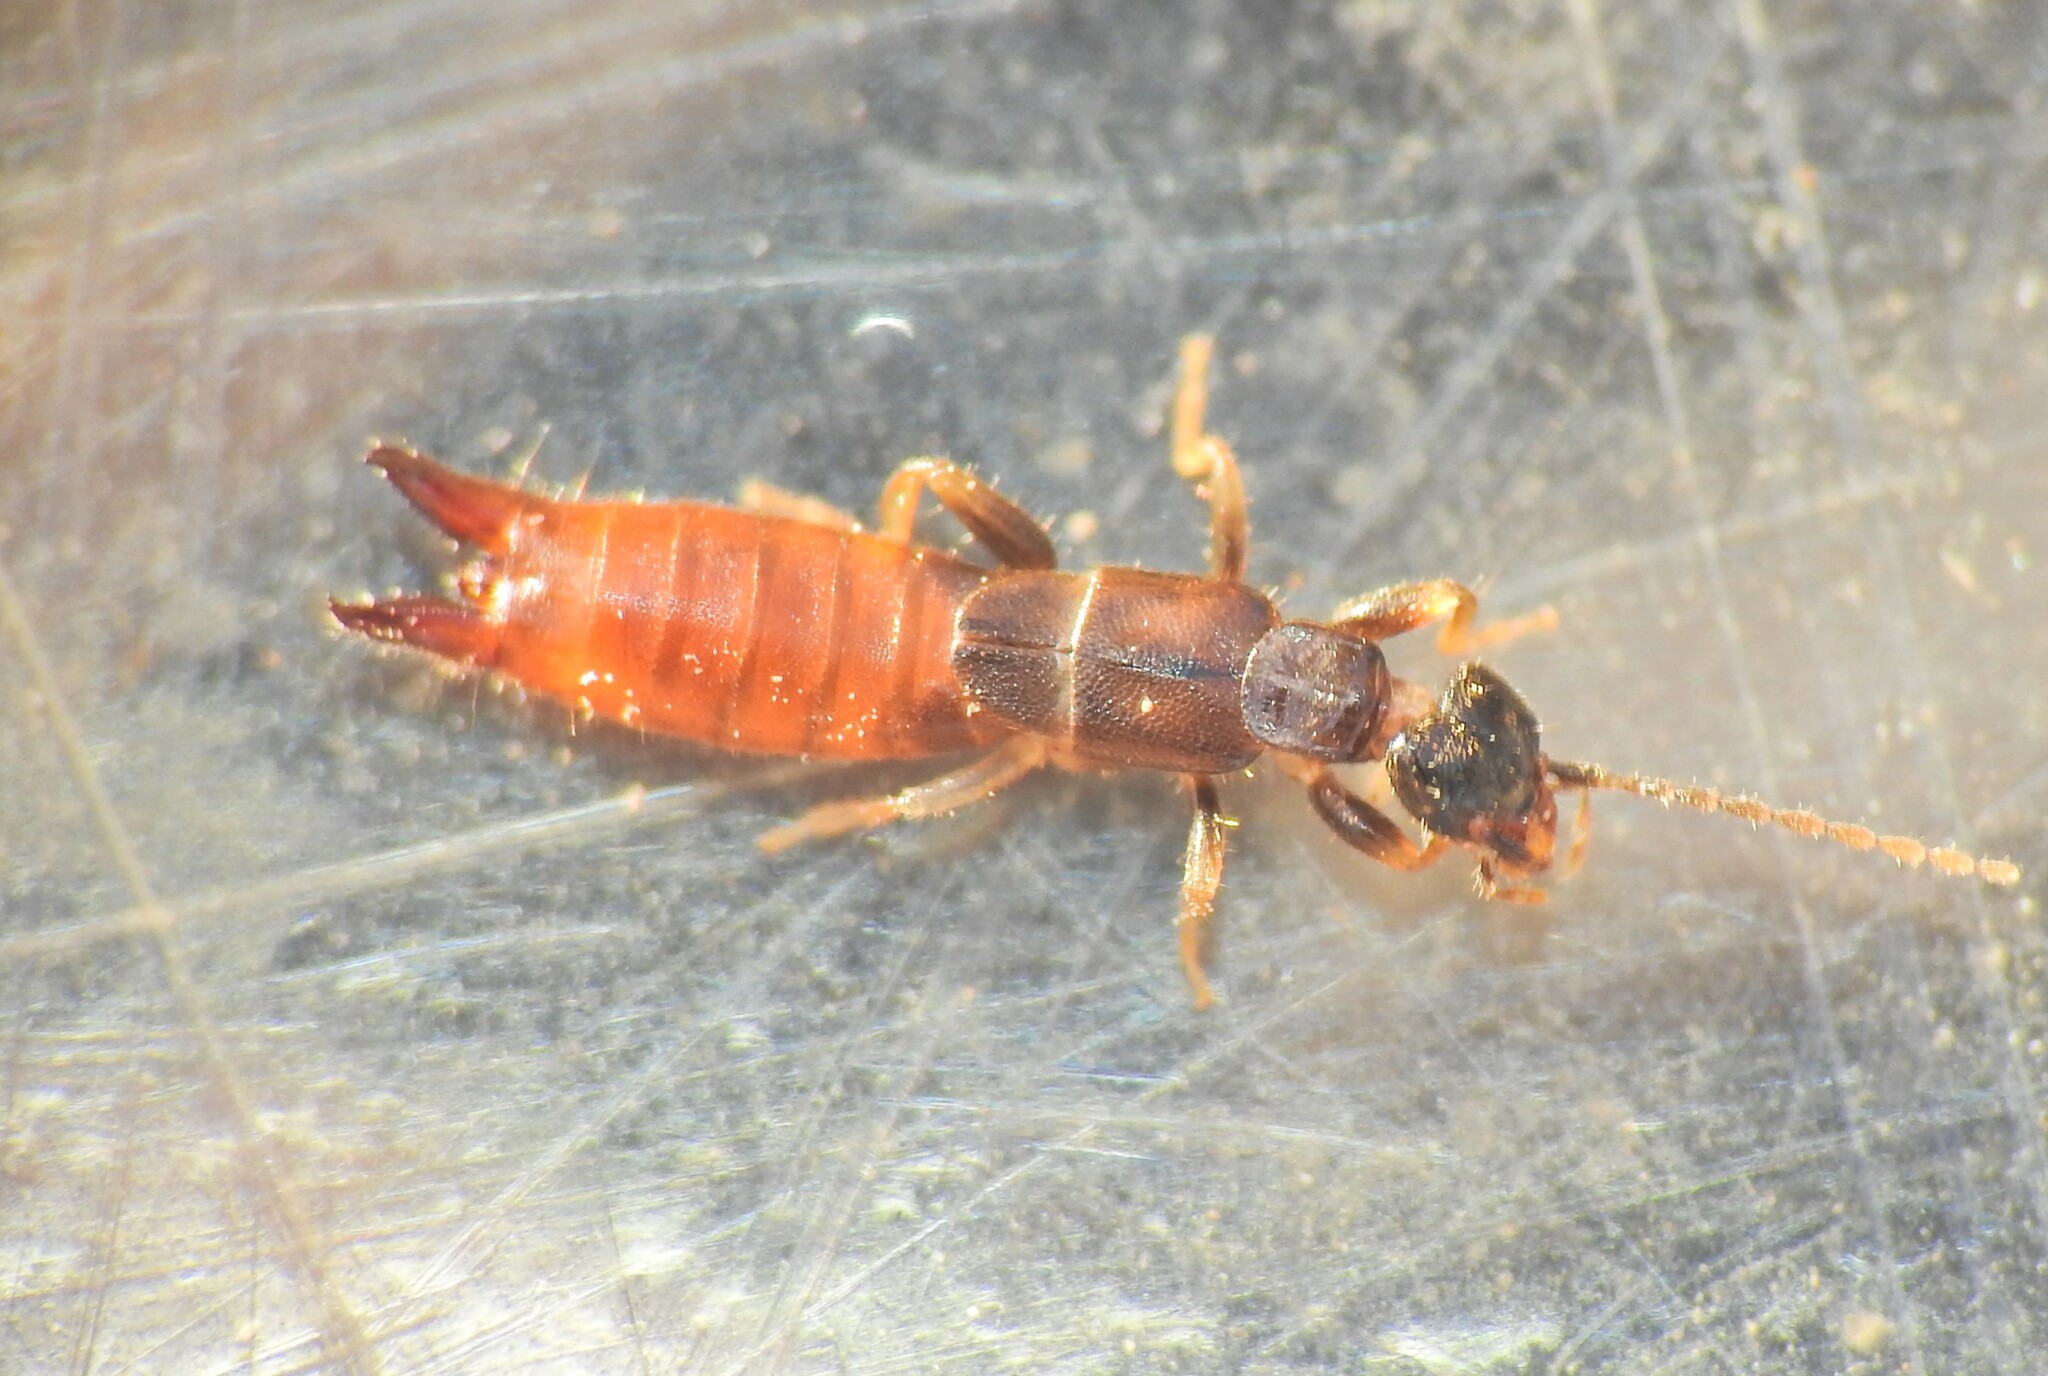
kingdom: Animalia
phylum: Arthropoda
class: Insecta
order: Dermaptera
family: Spongiphoridae
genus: Spirolabia
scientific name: Spirolabia pilicornis
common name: Earwig
